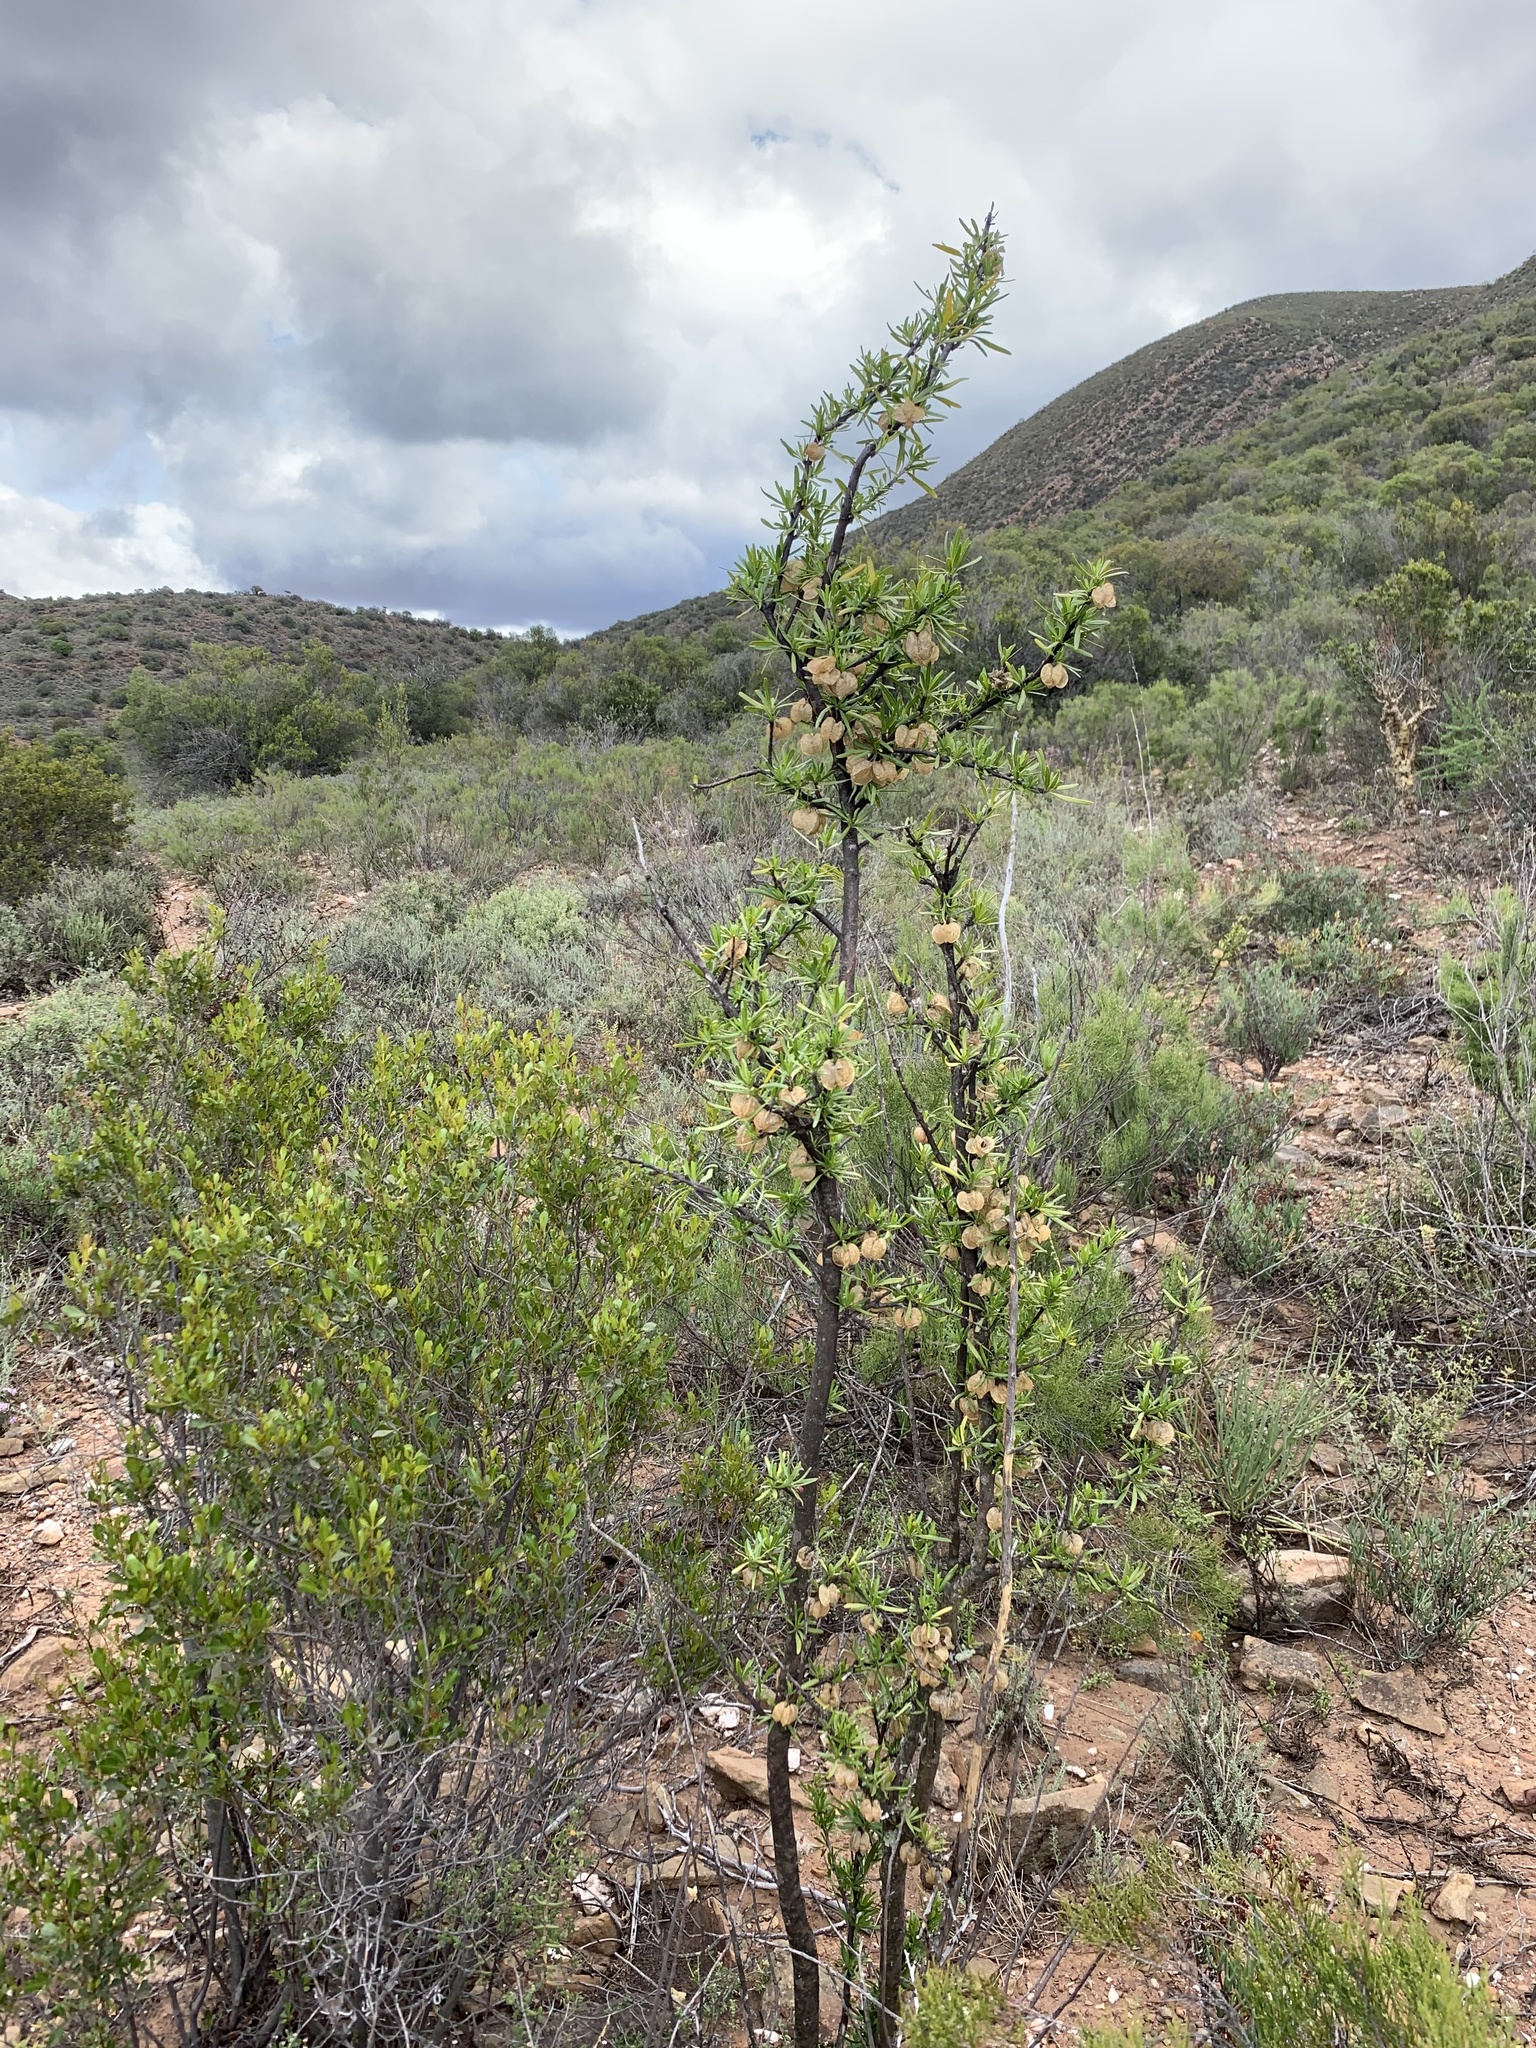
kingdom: Plantae
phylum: Tracheophyta
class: Magnoliopsida
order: Sapindales
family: Meliaceae
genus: Nymania
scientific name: Nymania capensis
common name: Chinese lantern tree
